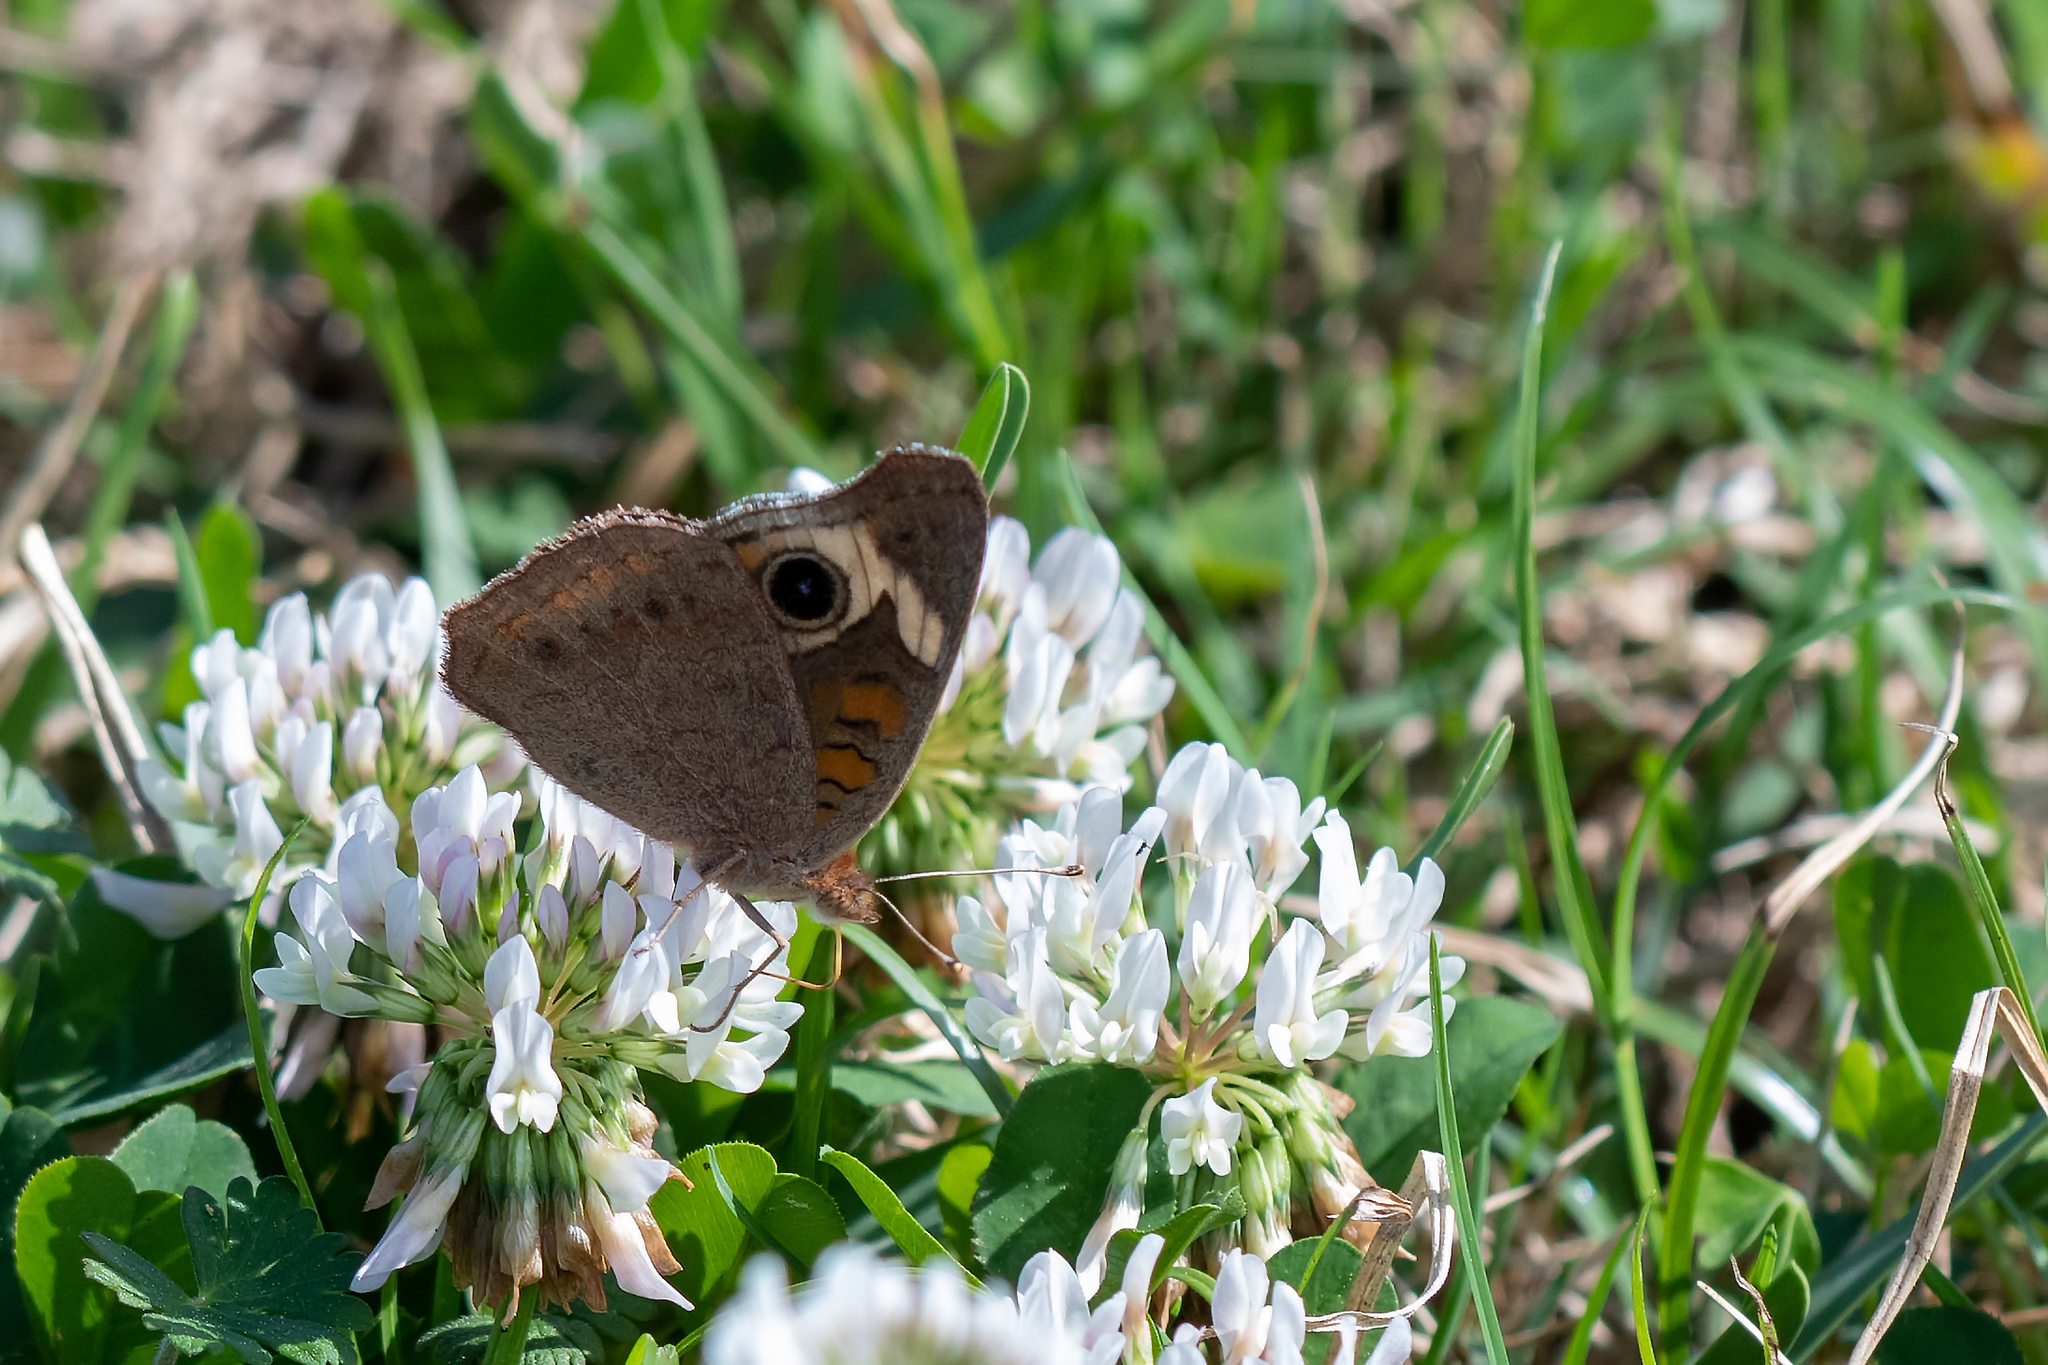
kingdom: Animalia
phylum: Arthropoda
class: Insecta
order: Lepidoptera
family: Nymphalidae
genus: Junonia
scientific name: Junonia coenia
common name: Common buckeye
